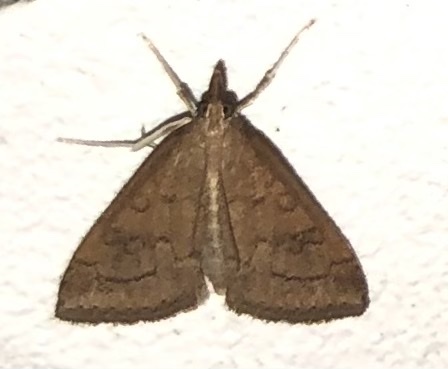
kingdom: Animalia
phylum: Arthropoda
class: Insecta
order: Lepidoptera
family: Crambidae
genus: Udea
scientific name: Udea rubigalis
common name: Celery leaftier moth
